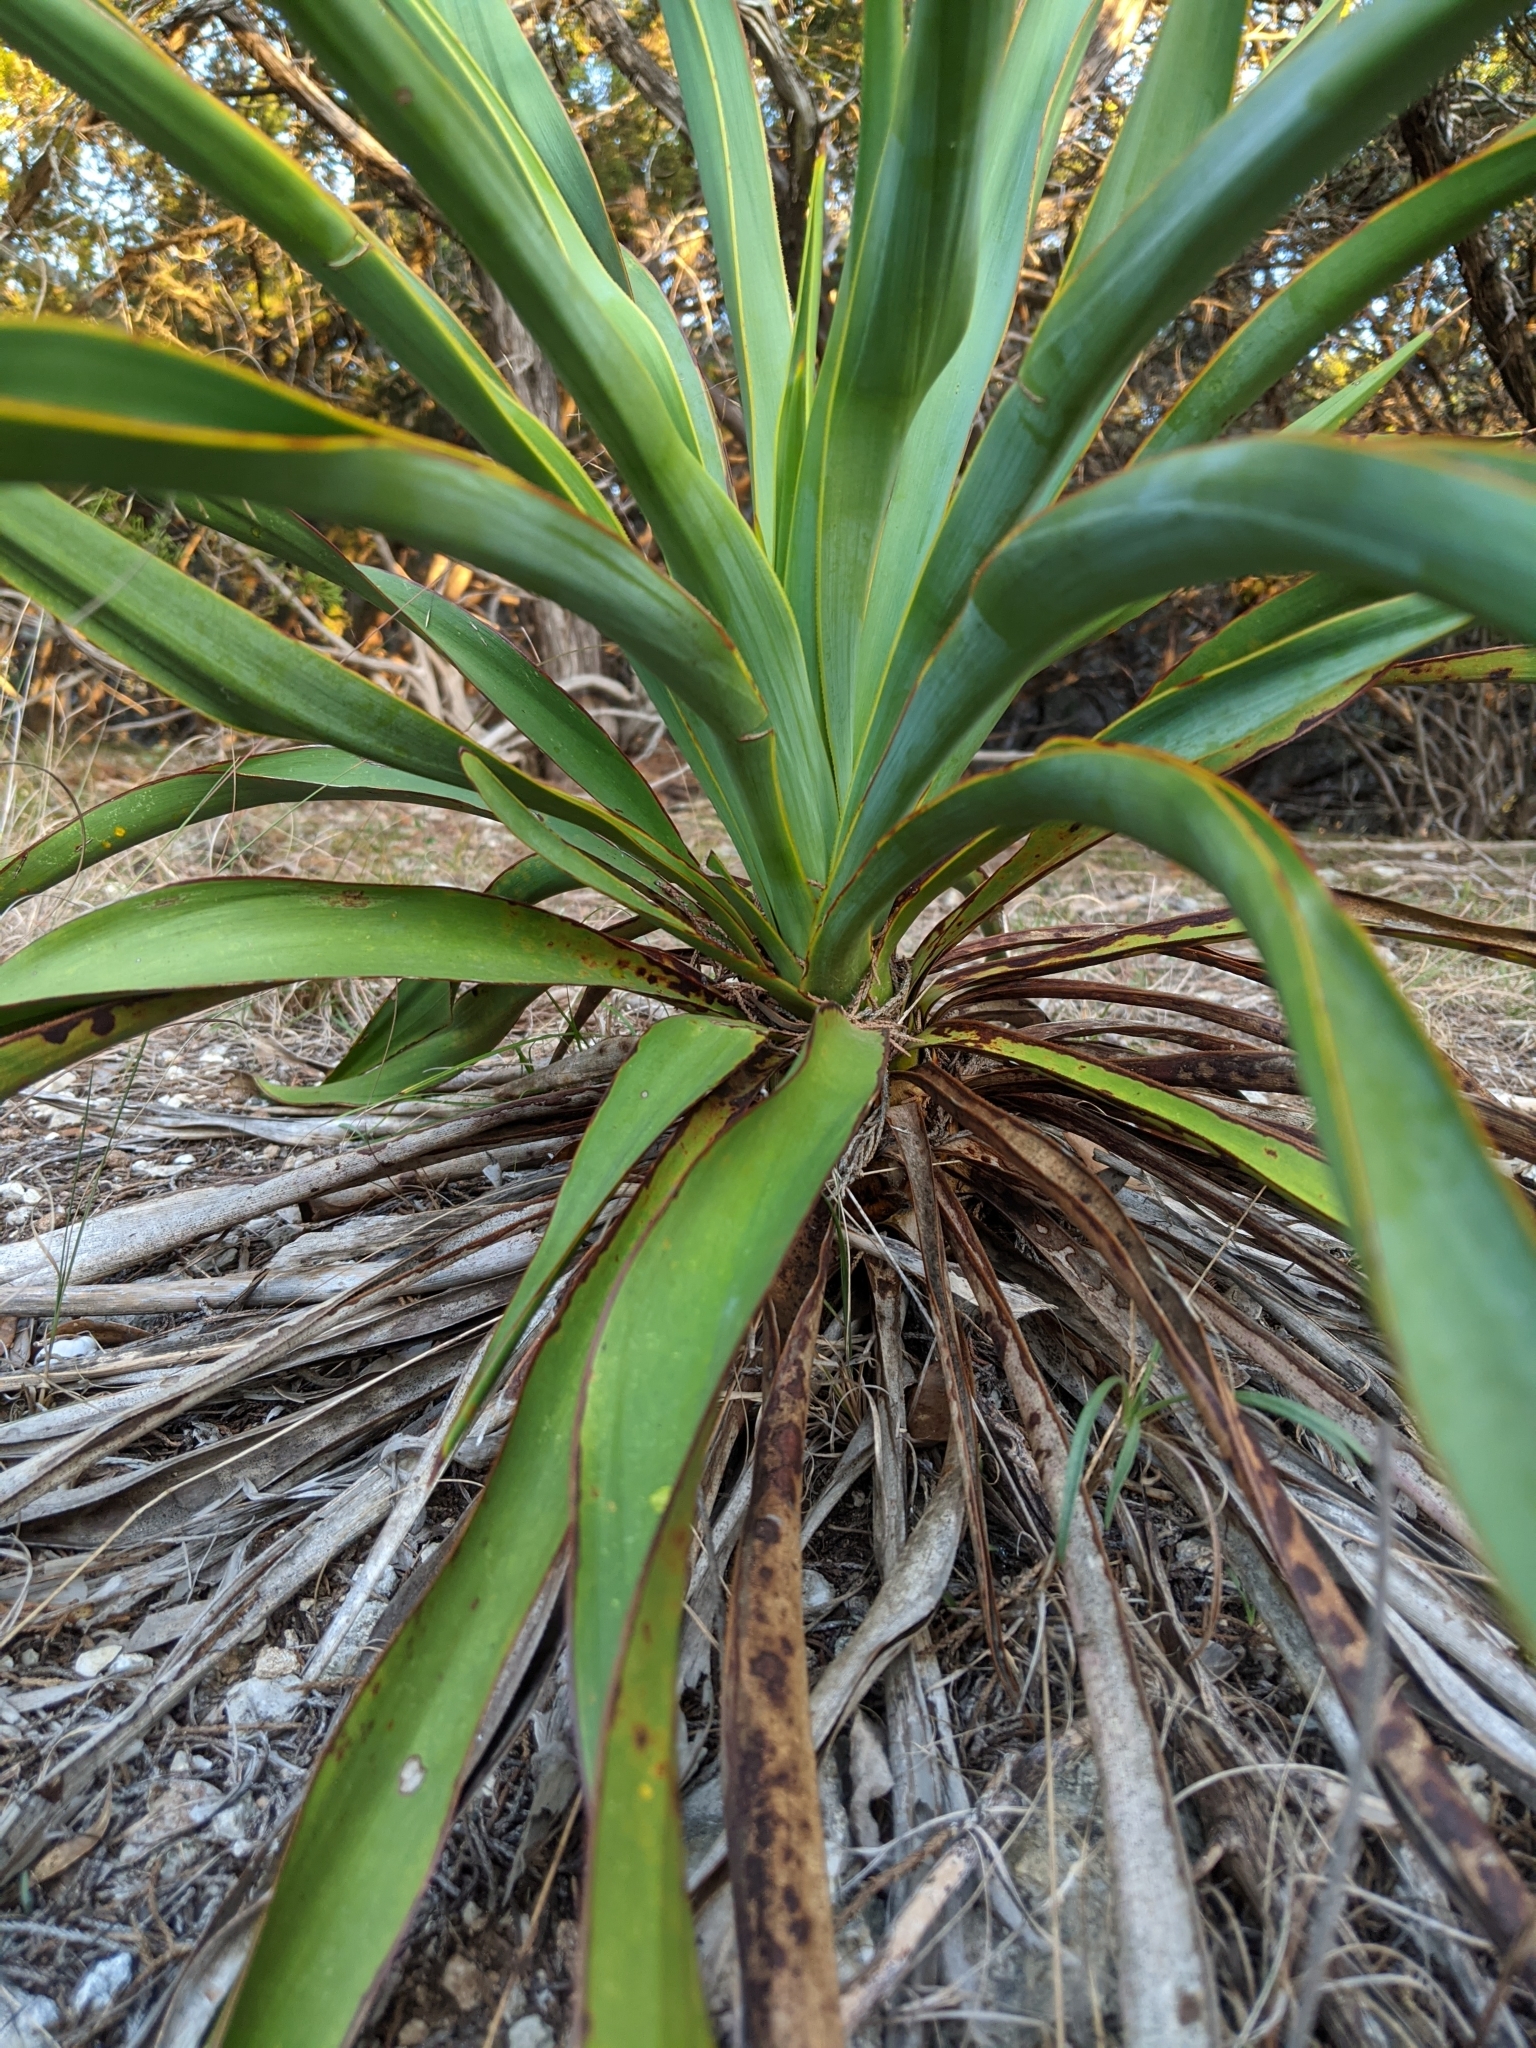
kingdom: Plantae
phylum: Tracheophyta
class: Liliopsida
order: Asparagales
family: Asparagaceae
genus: Yucca
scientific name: Yucca rupicola
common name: Twisted-leaf spanish-dagger
